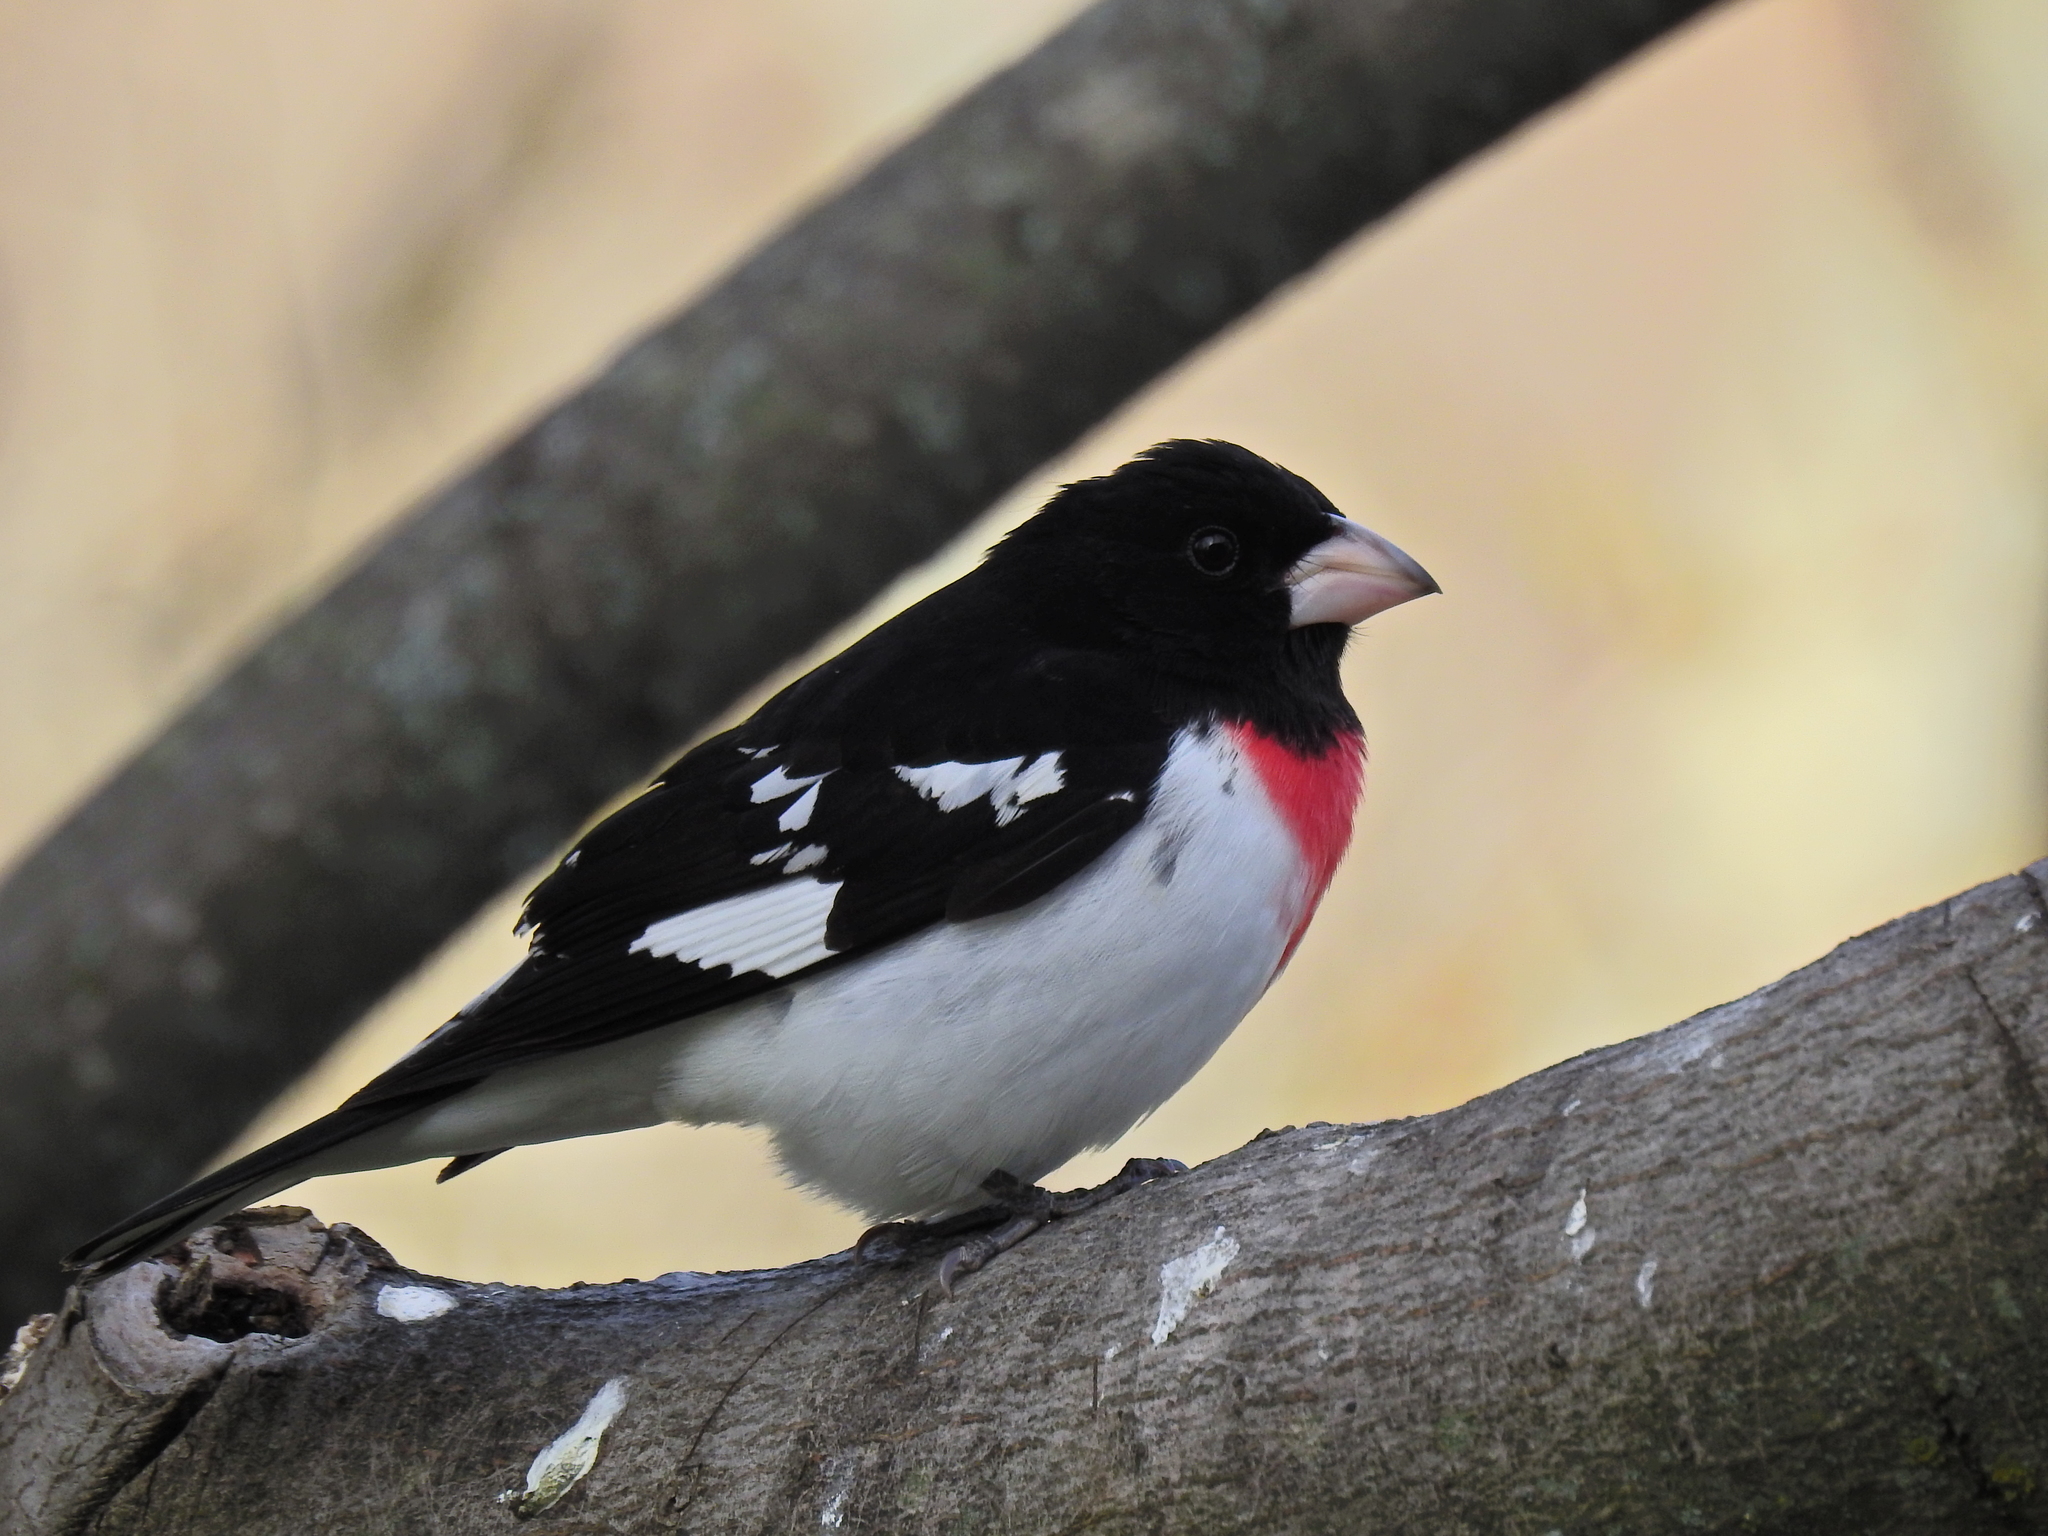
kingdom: Animalia
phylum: Chordata
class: Aves
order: Passeriformes
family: Cardinalidae
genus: Pheucticus
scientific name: Pheucticus ludovicianus
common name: Rose-breasted grosbeak
